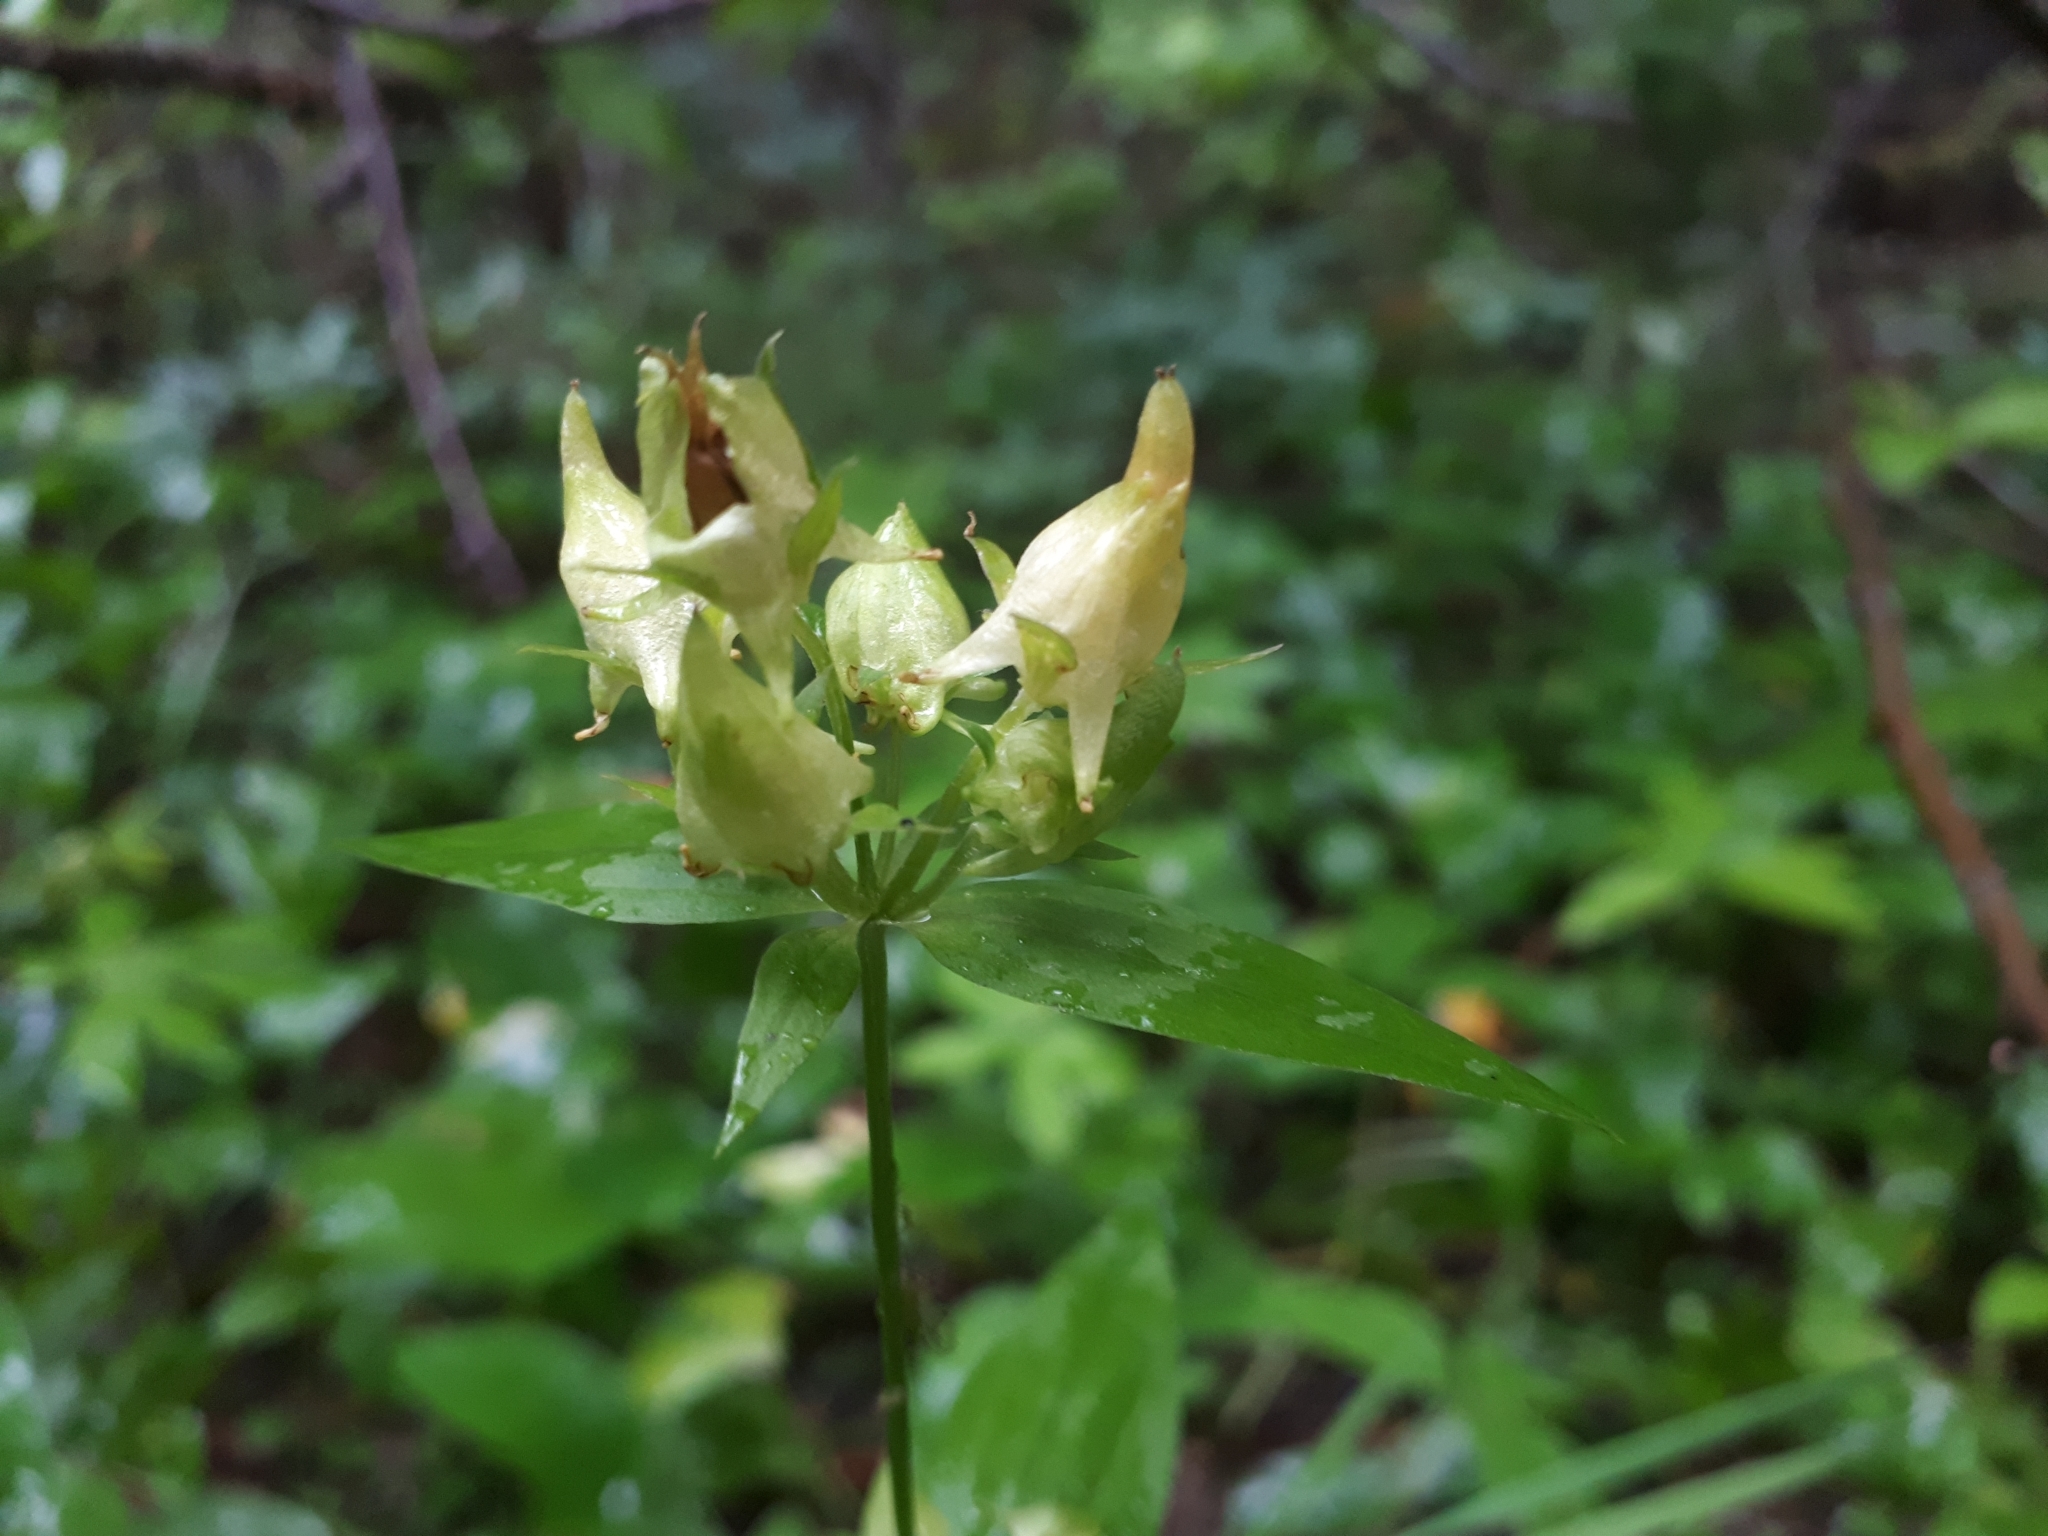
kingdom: Plantae
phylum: Tracheophyta
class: Magnoliopsida
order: Gentianales
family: Gentianaceae
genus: Halenia
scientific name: Halenia deflexa
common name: American spurred gentian
